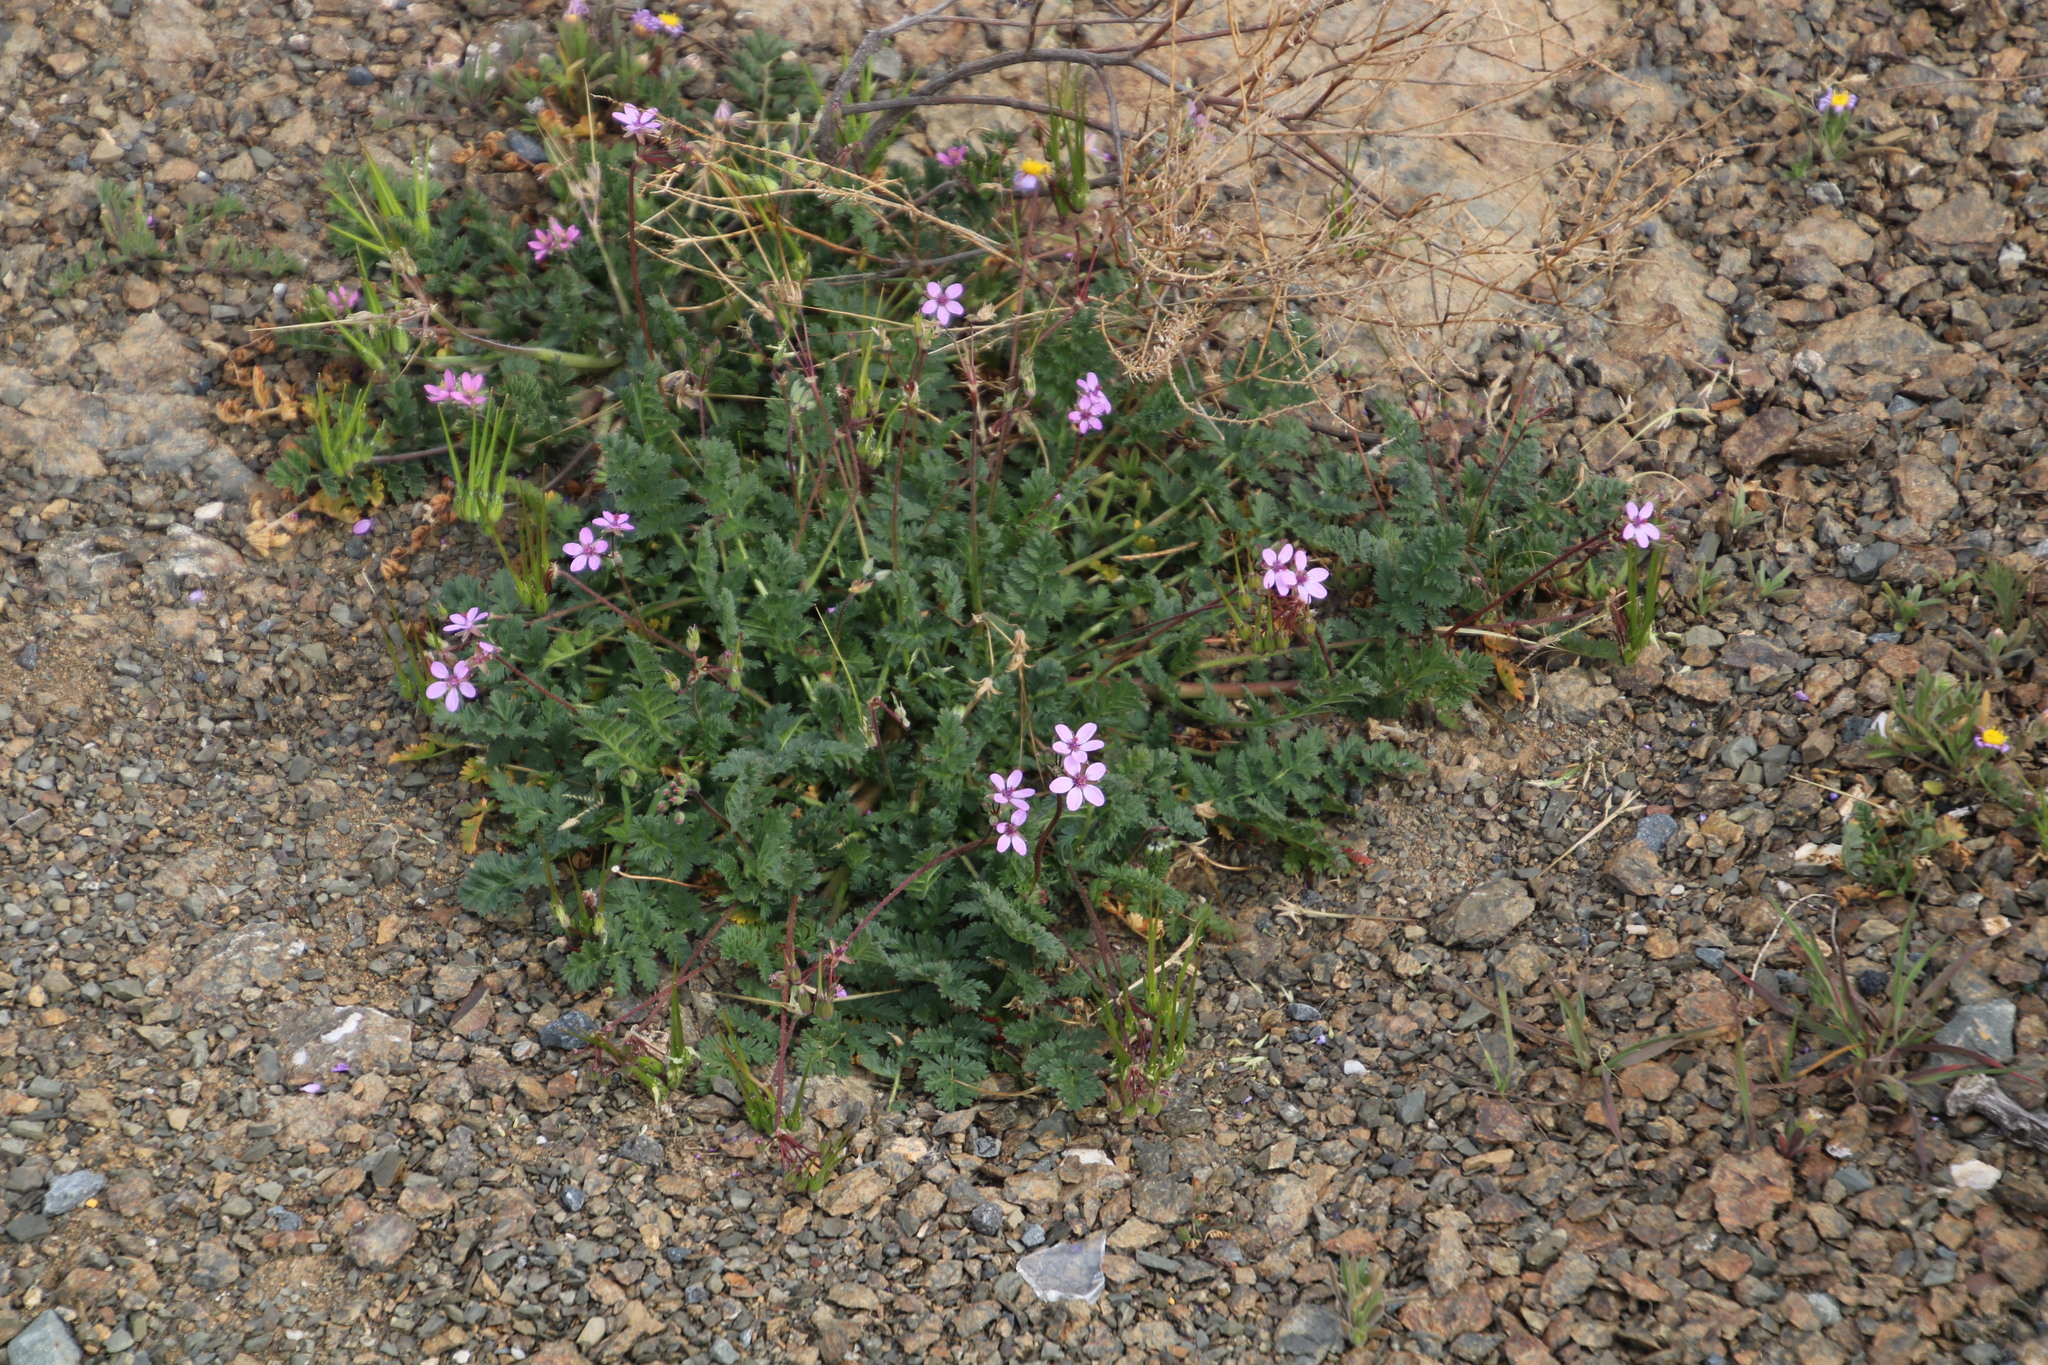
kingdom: Plantae
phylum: Tracheophyta
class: Magnoliopsida
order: Geraniales
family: Geraniaceae
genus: Erodium
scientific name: Erodium cicutarium
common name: Common stork's-bill
